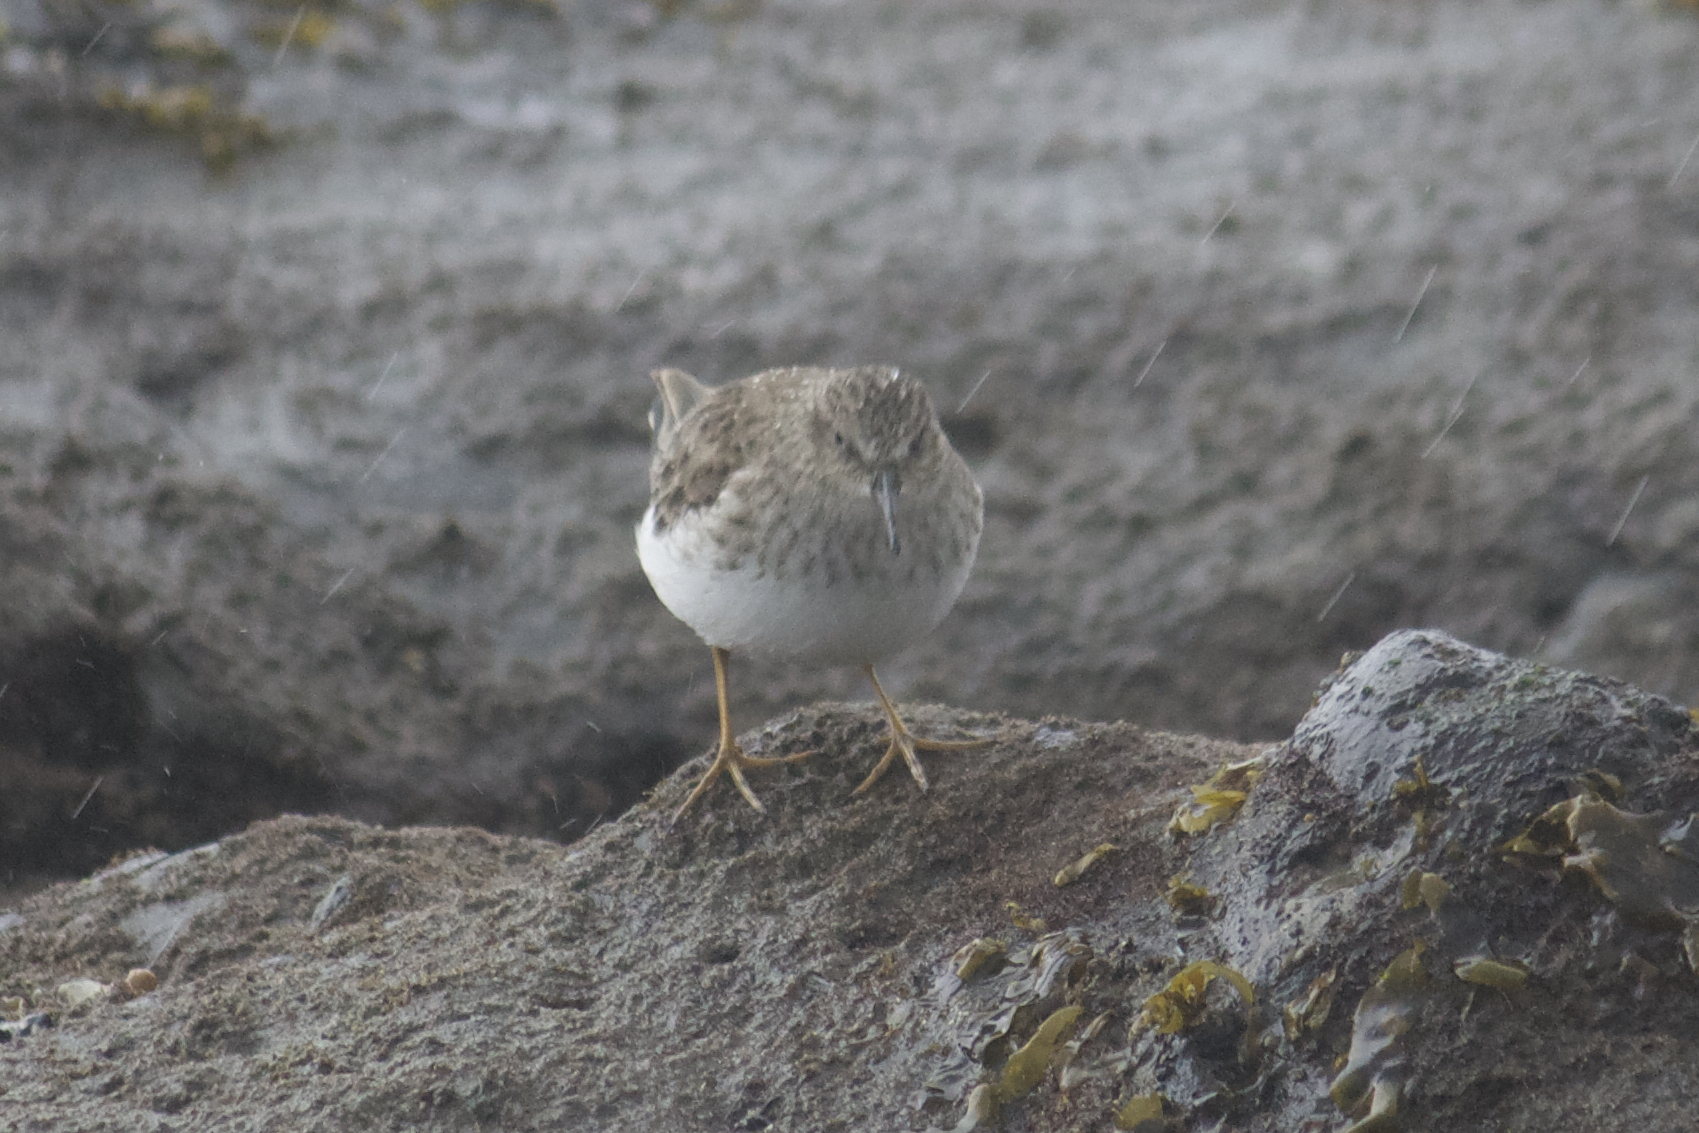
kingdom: Animalia
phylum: Chordata
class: Aves
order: Charadriiformes
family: Scolopacidae
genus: Calidris
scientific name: Calidris minutilla
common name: Least sandpiper
